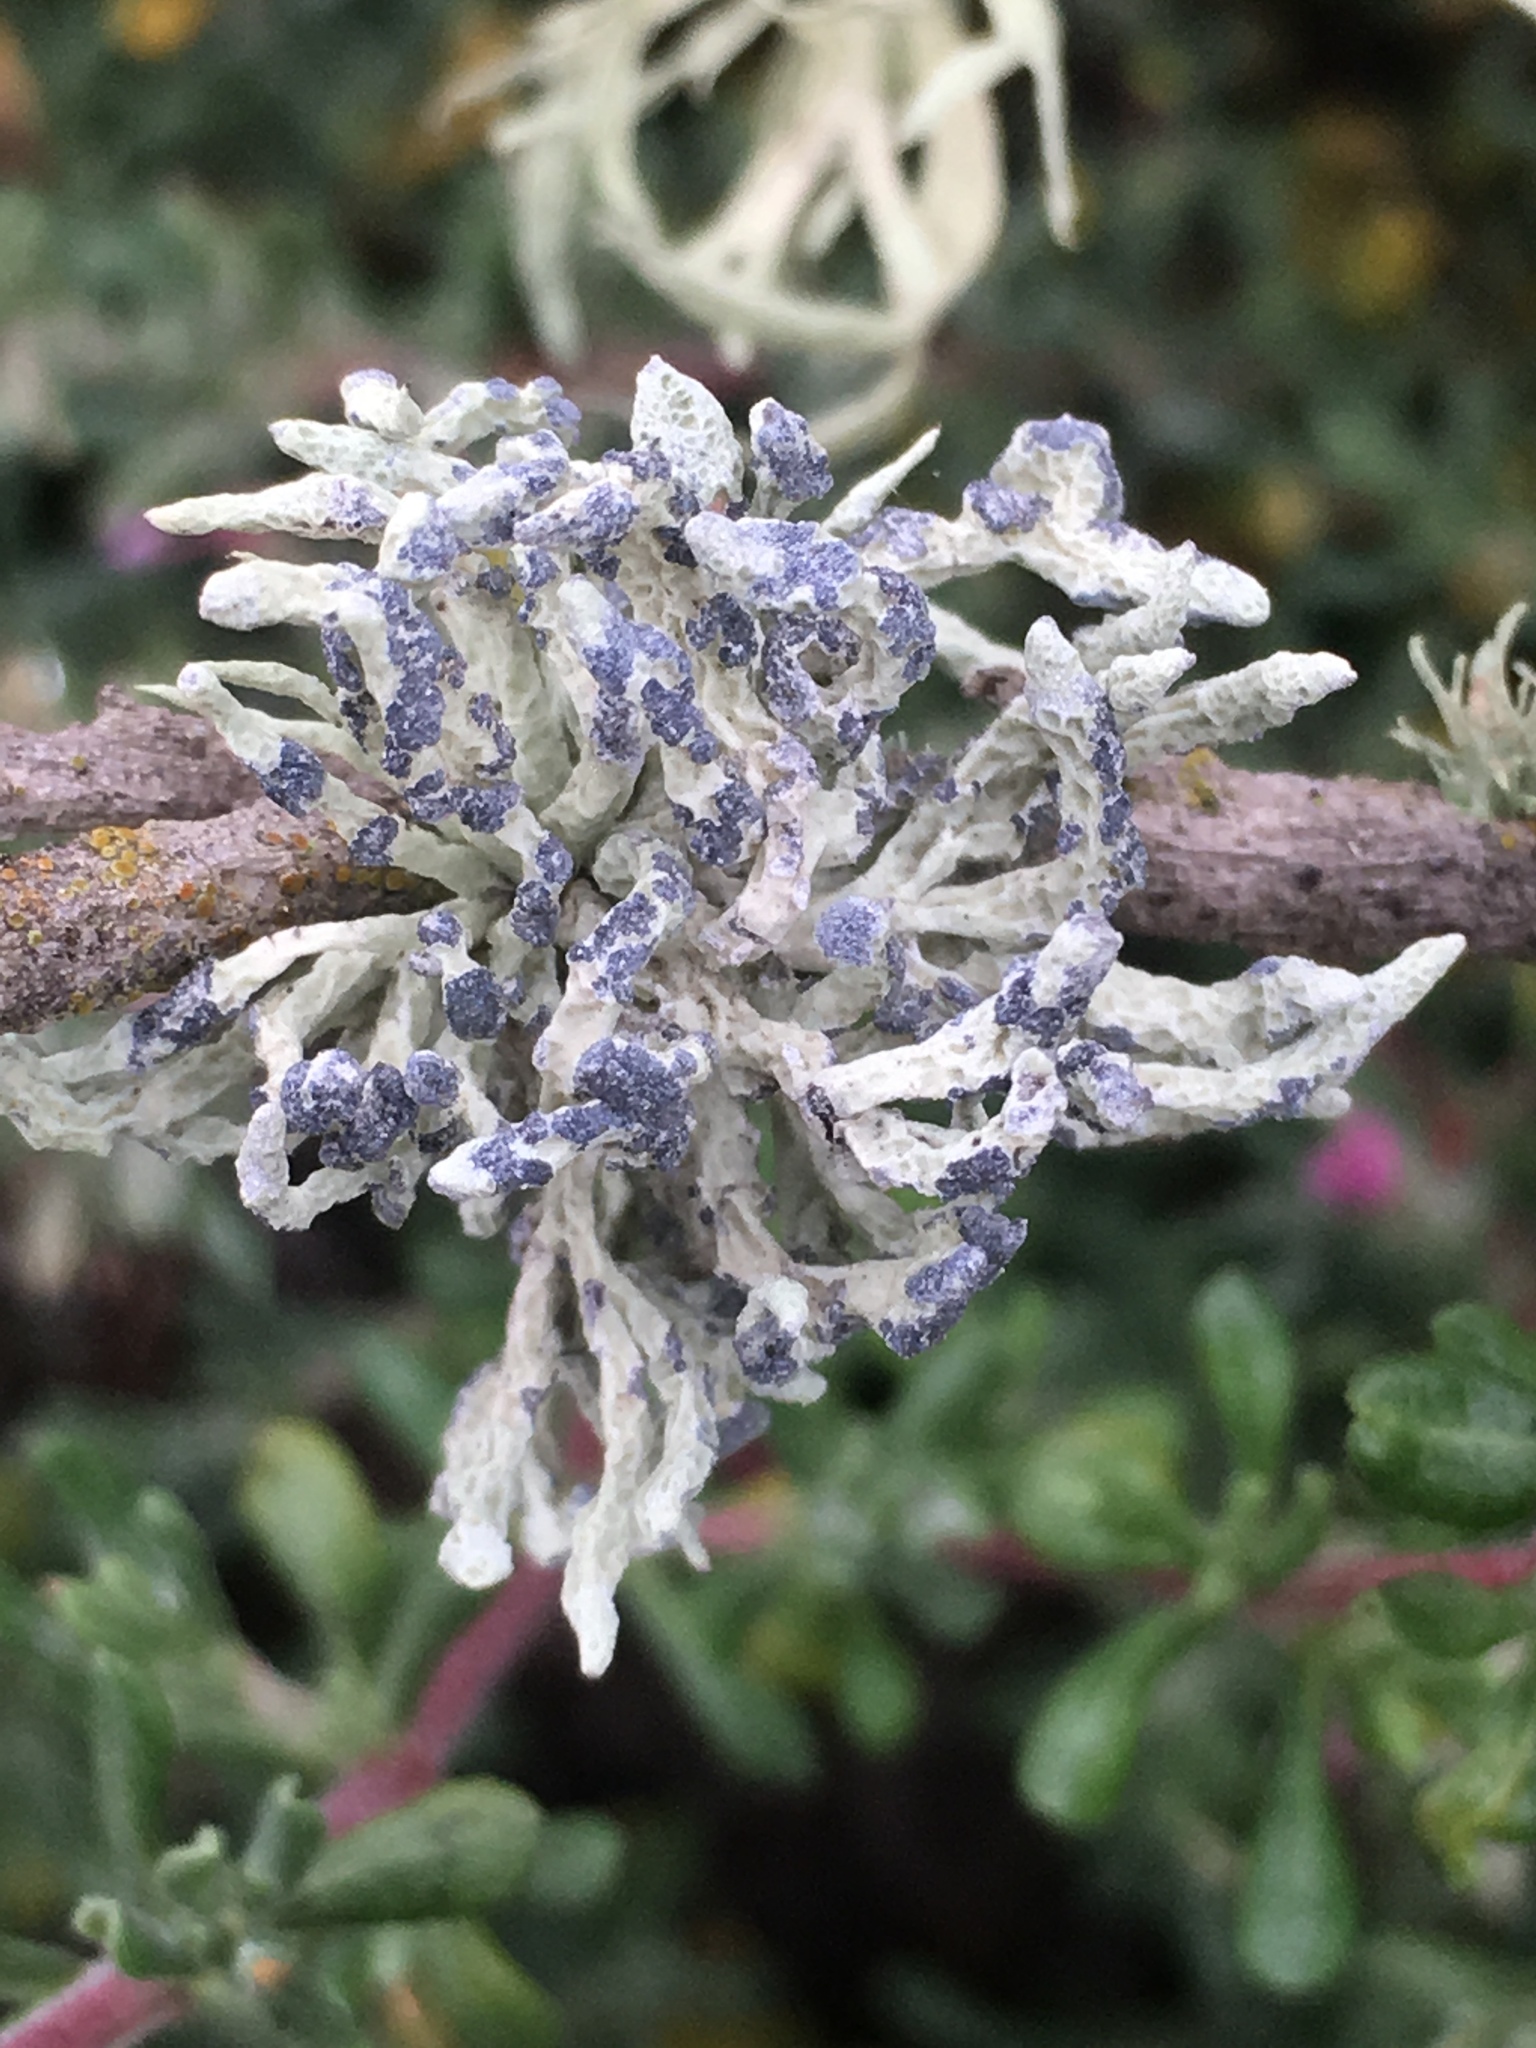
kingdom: Fungi
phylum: Ascomycota
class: Lecanoromycetes
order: Lecanorales
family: Ramalinaceae
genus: Niebla
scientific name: Niebla cephalota
